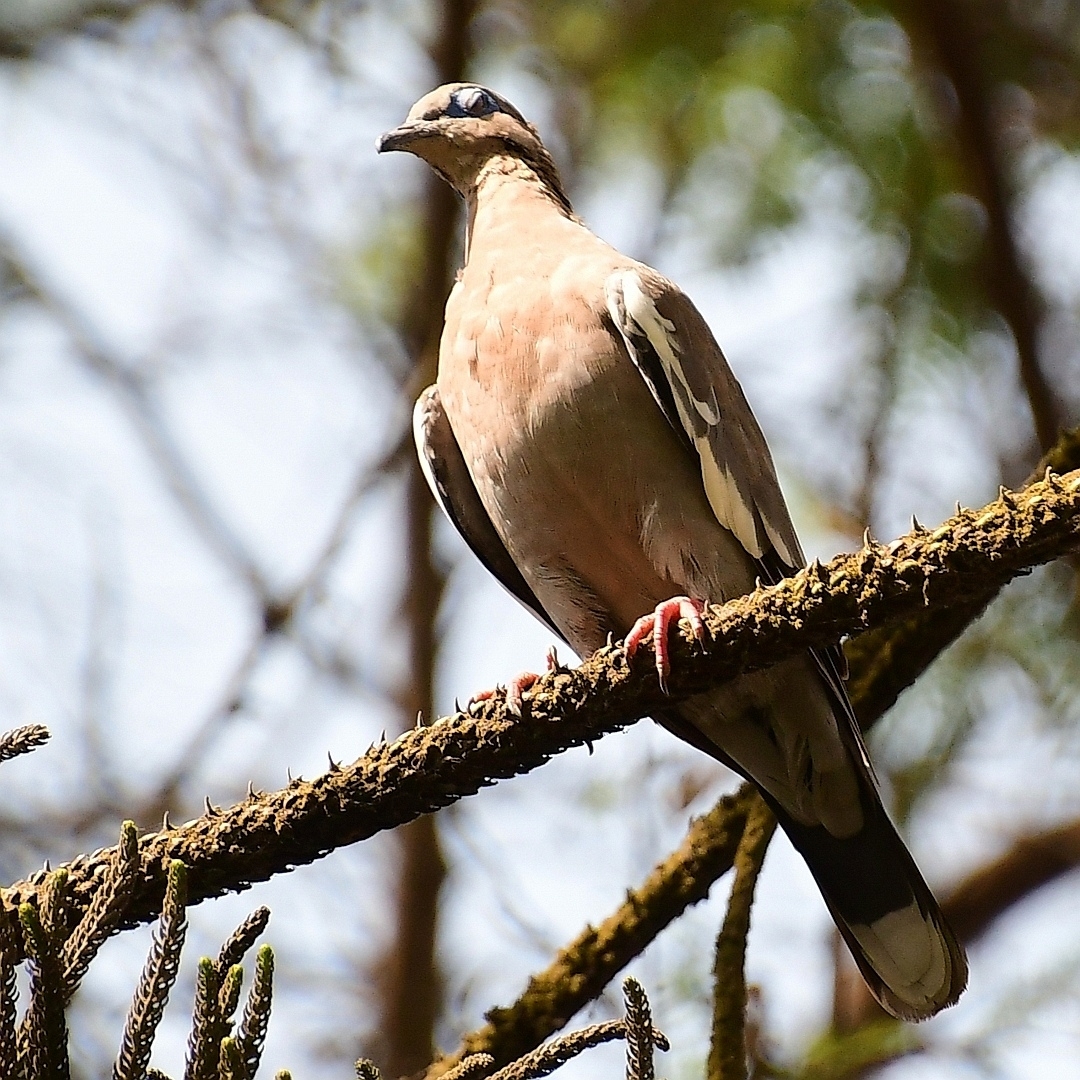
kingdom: Animalia
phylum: Chordata
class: Aves
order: Columbiformes
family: Columbidae
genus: Zenaida
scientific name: Zenaida meloda
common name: West peruvian dove
